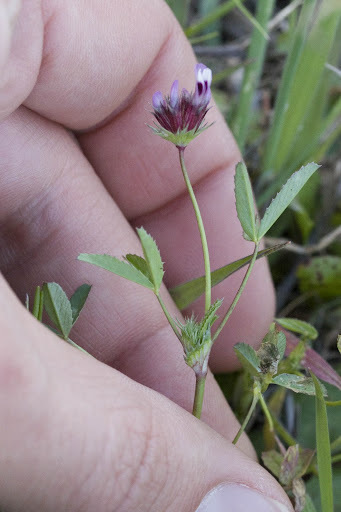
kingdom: Plantae
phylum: Tracheophyta
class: Magnoliopsida
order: Fabales
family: Fabaceae
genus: Trifolium
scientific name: Trifolium willdenovii
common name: Tomcat clover
